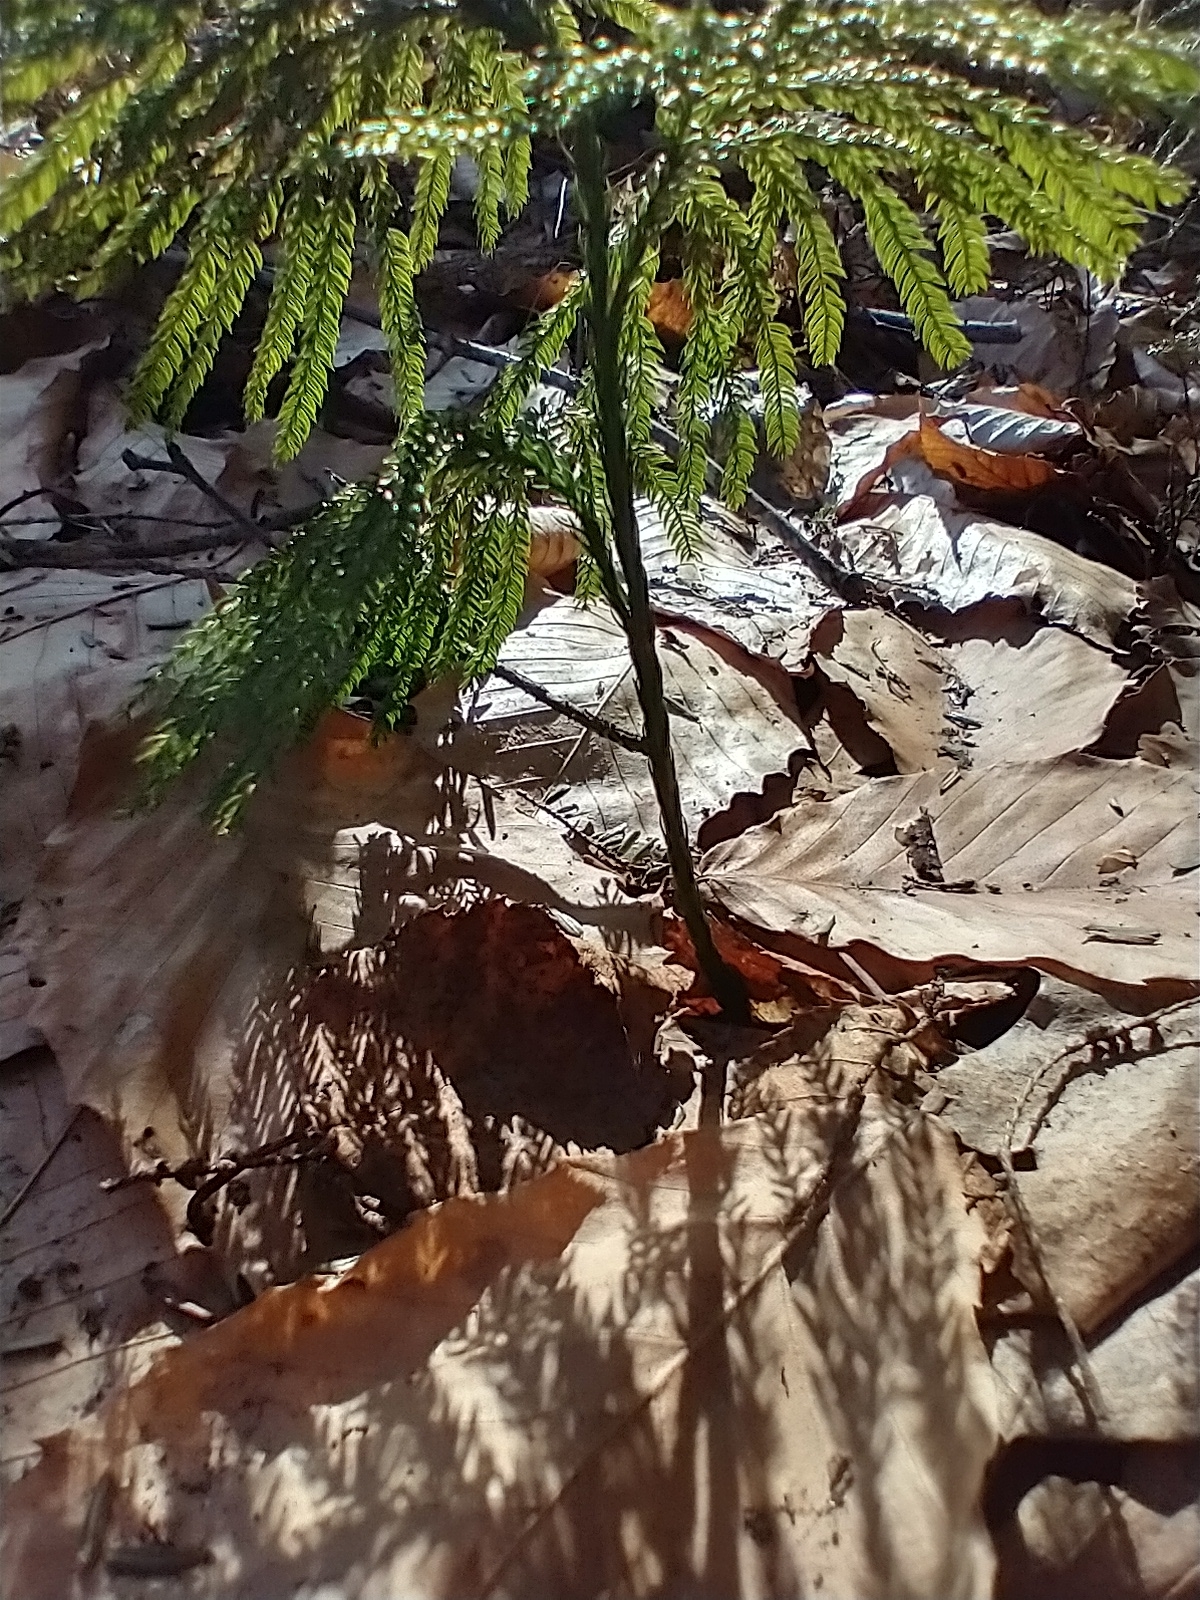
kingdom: Plantae
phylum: Tracheophyta
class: Lycopodiopsida
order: Lycopodiales
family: Lycopodiaceae
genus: Dendrolycopodium
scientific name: Dendrolycopodium obscurum
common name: Common ground-pine
